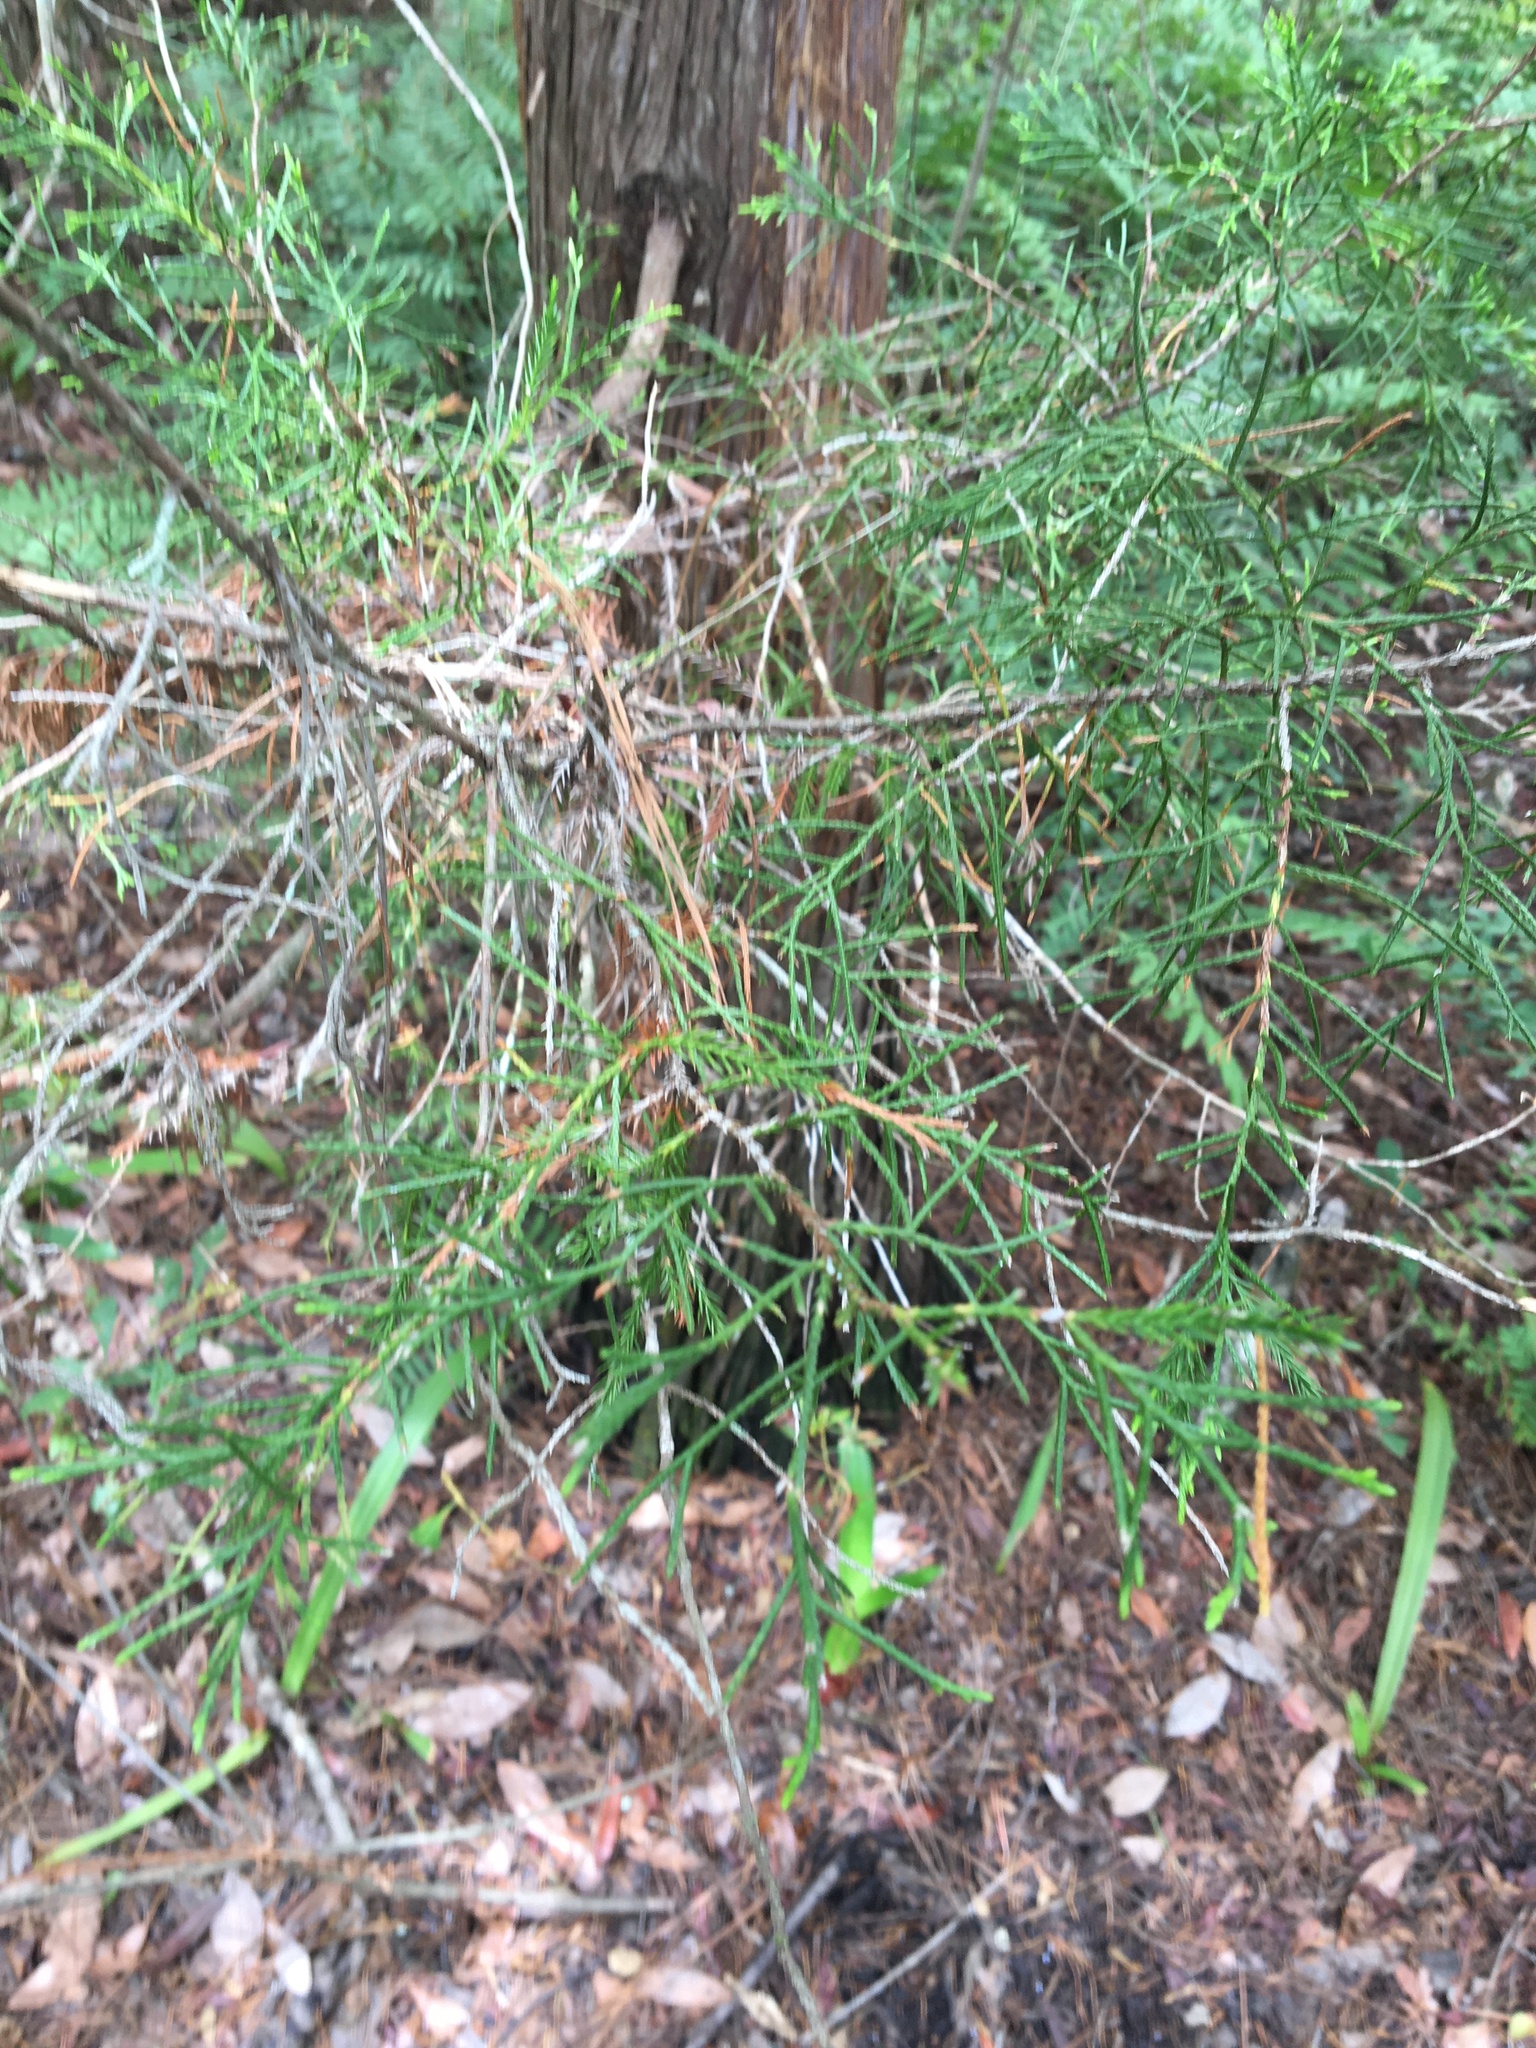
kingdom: Plantae
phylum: Tracheophyta
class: Pinopsida
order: Pinales
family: Cupressaceae
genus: Juniperus
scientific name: Juniperus virginiana
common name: Red juniper
